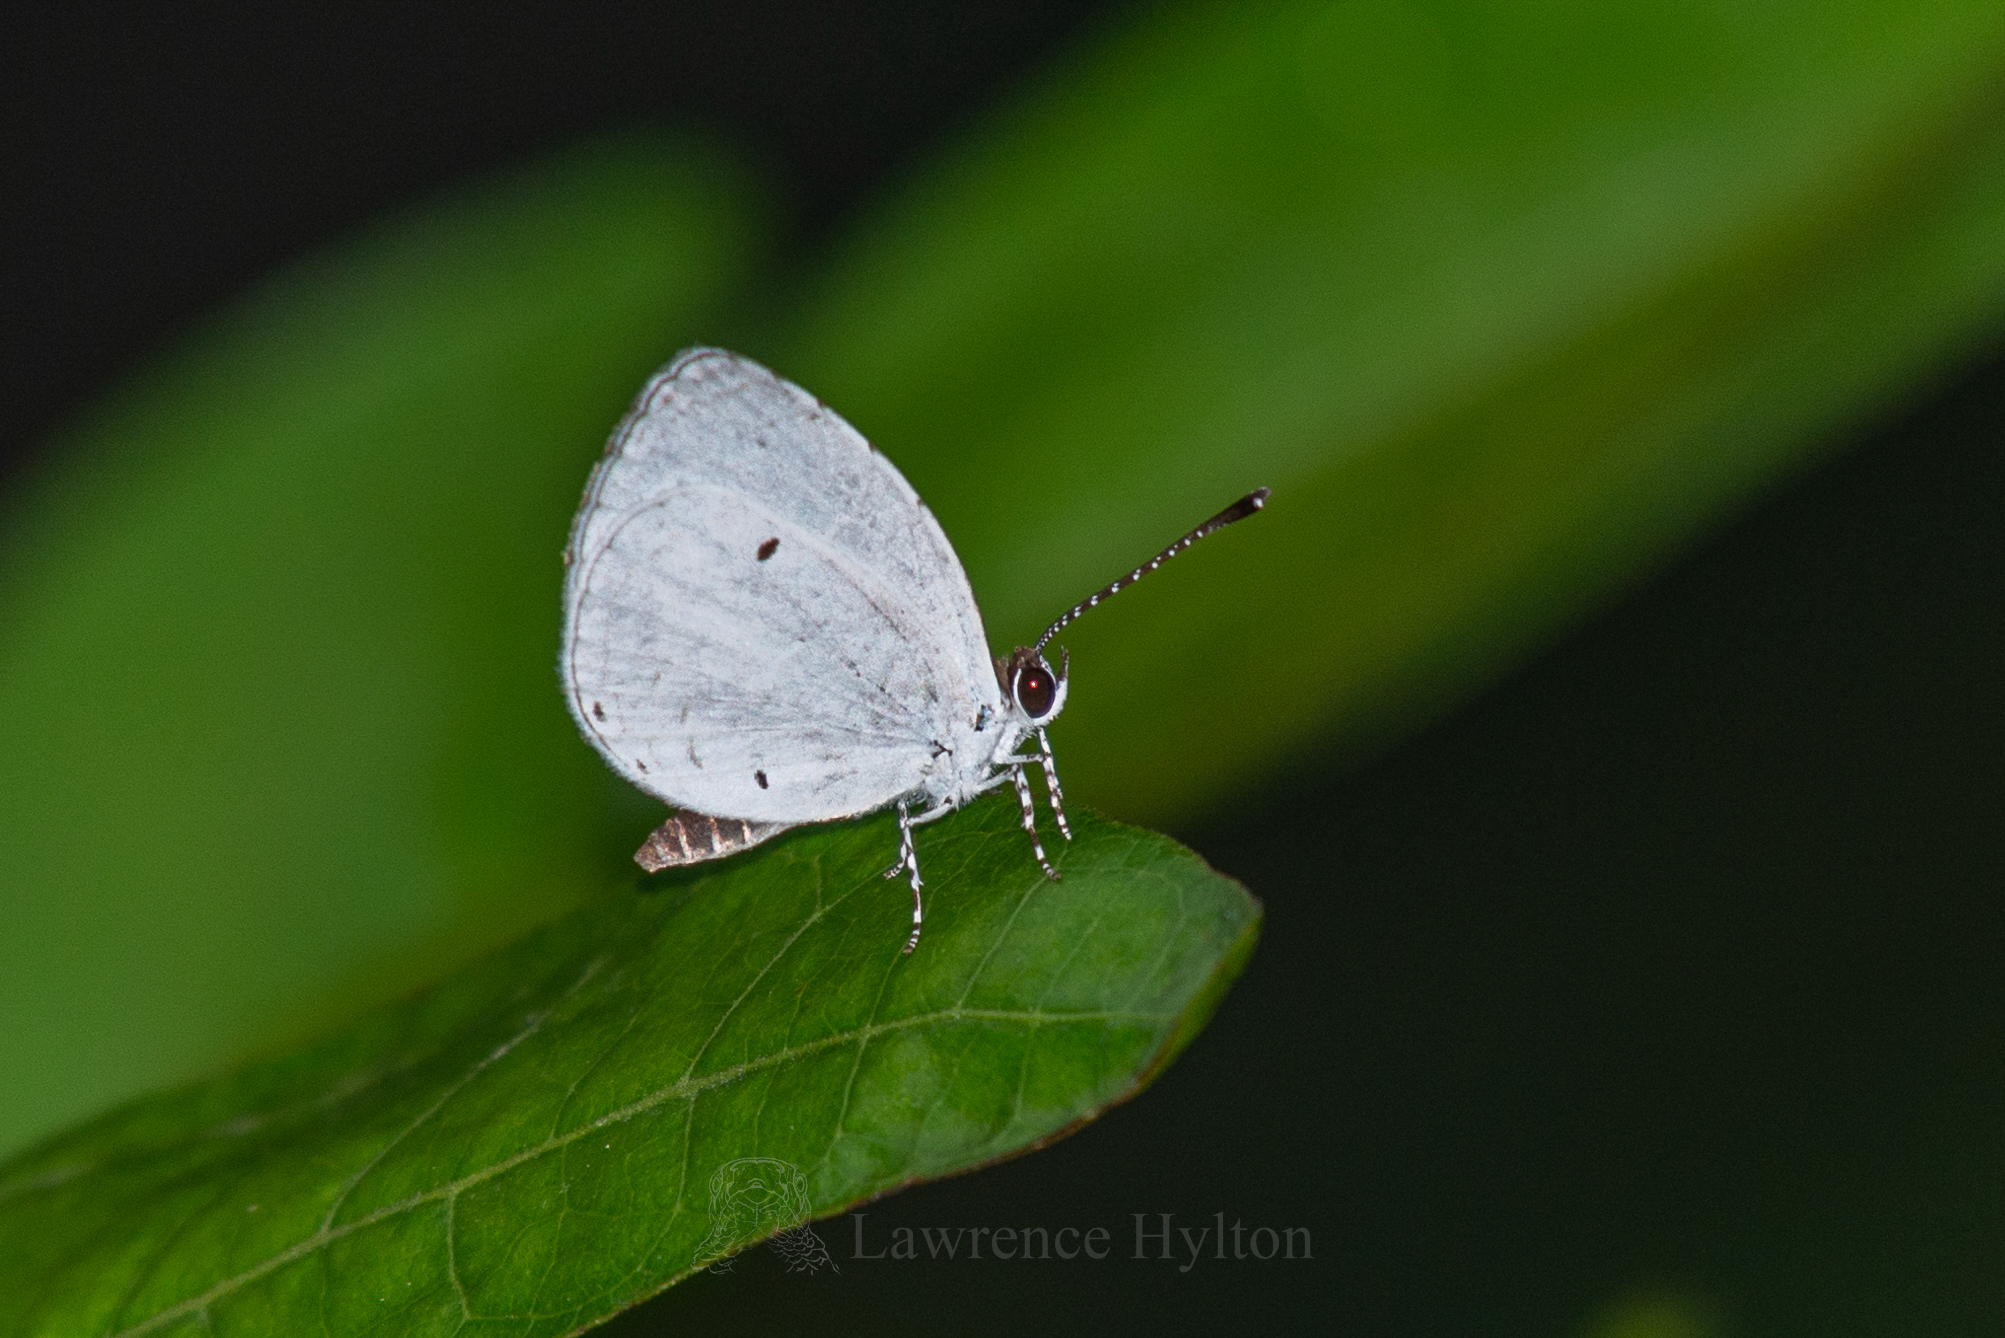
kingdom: Animalia
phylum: Arthropoda
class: Insecta
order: Lepidoptera
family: Lycaenidae
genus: Neopithecops
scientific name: Neopithecops zalmora
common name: Quaker
